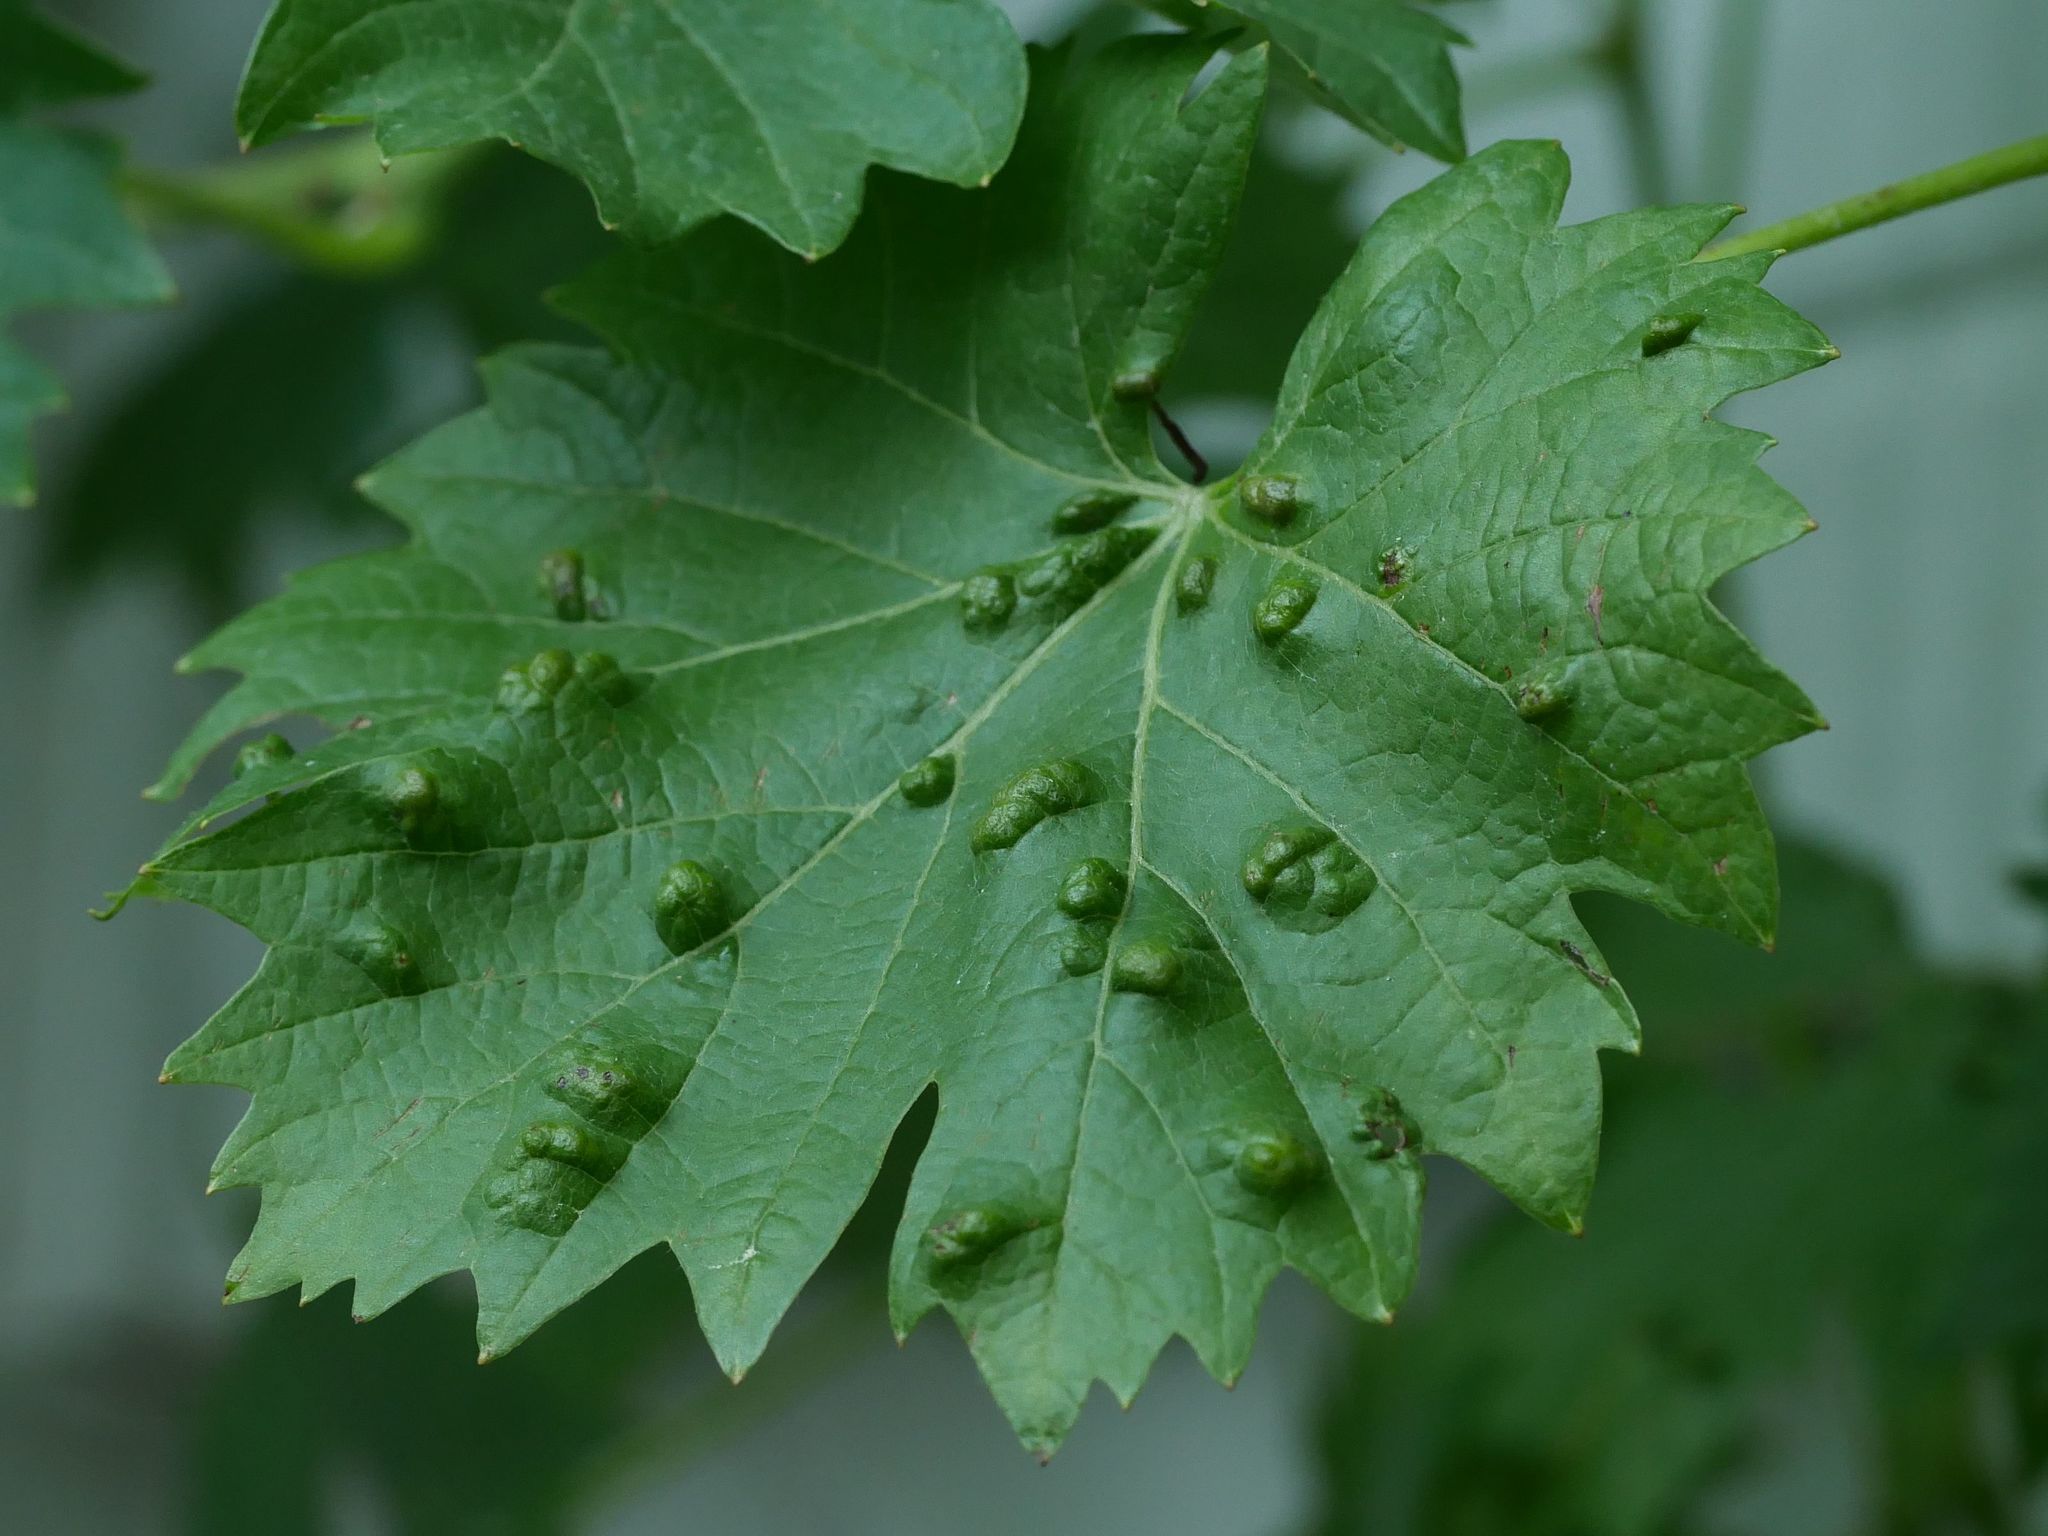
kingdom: Animalia
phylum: Arthropoda
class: Arachnida
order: Trombidiformes
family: Eriophyidae
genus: Colomerus
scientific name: Colomerus vitis
